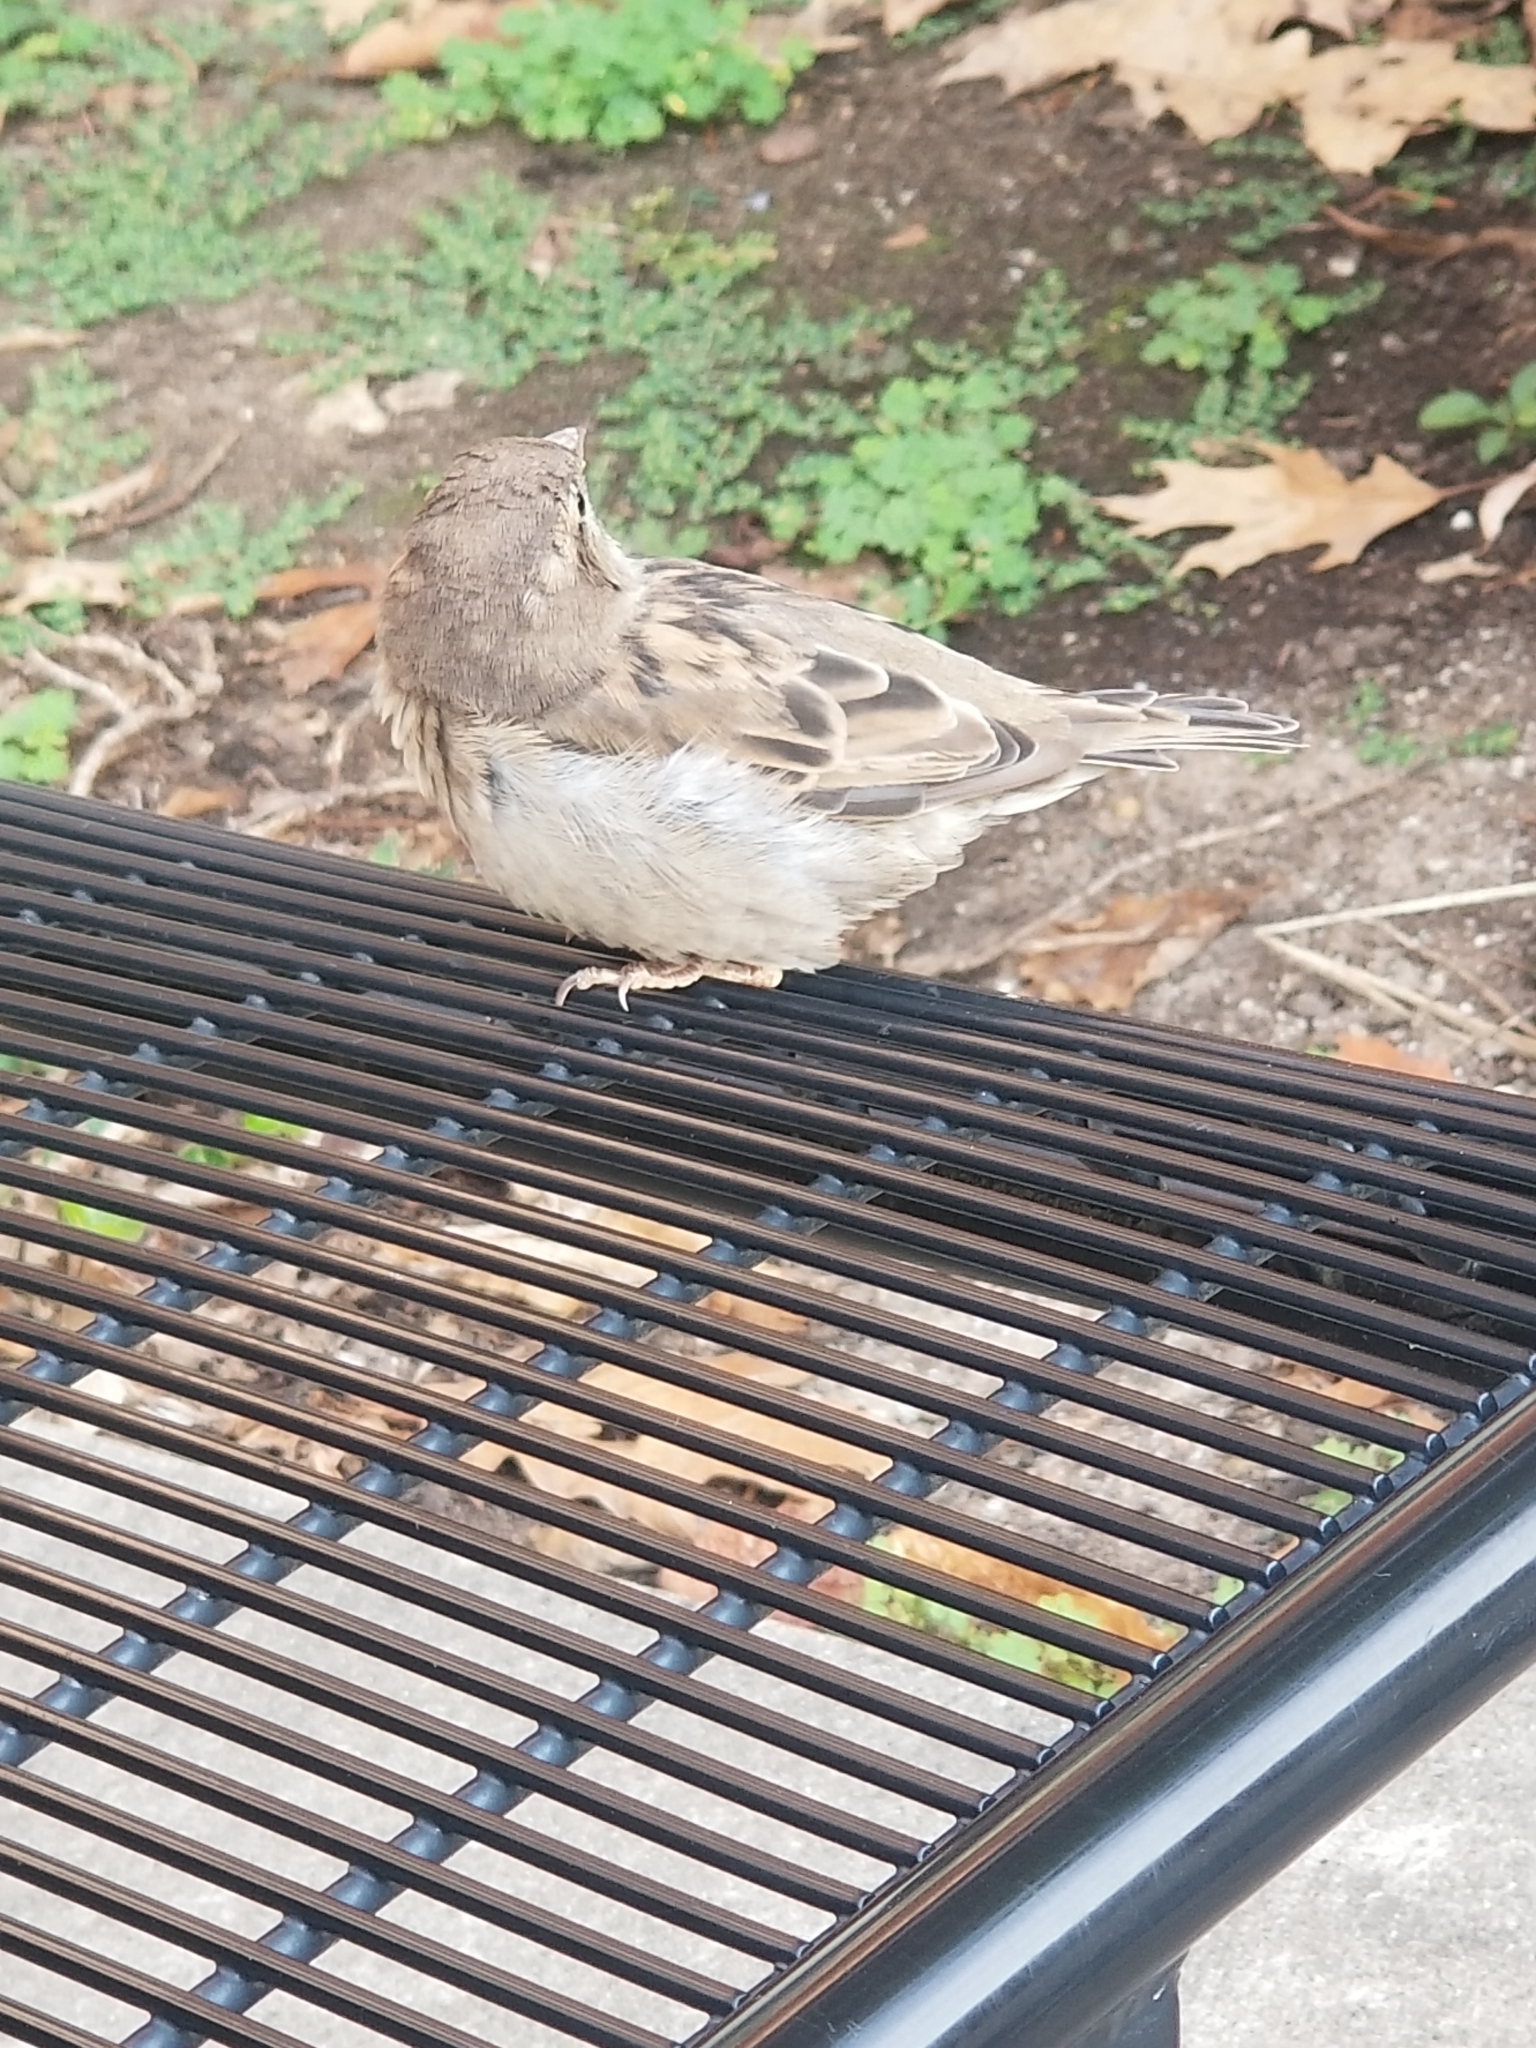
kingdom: Animalia
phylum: Chordata
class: Aves
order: Passeriformes
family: Passeridae
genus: Passer
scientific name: Passer domesticus
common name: House sparrow
